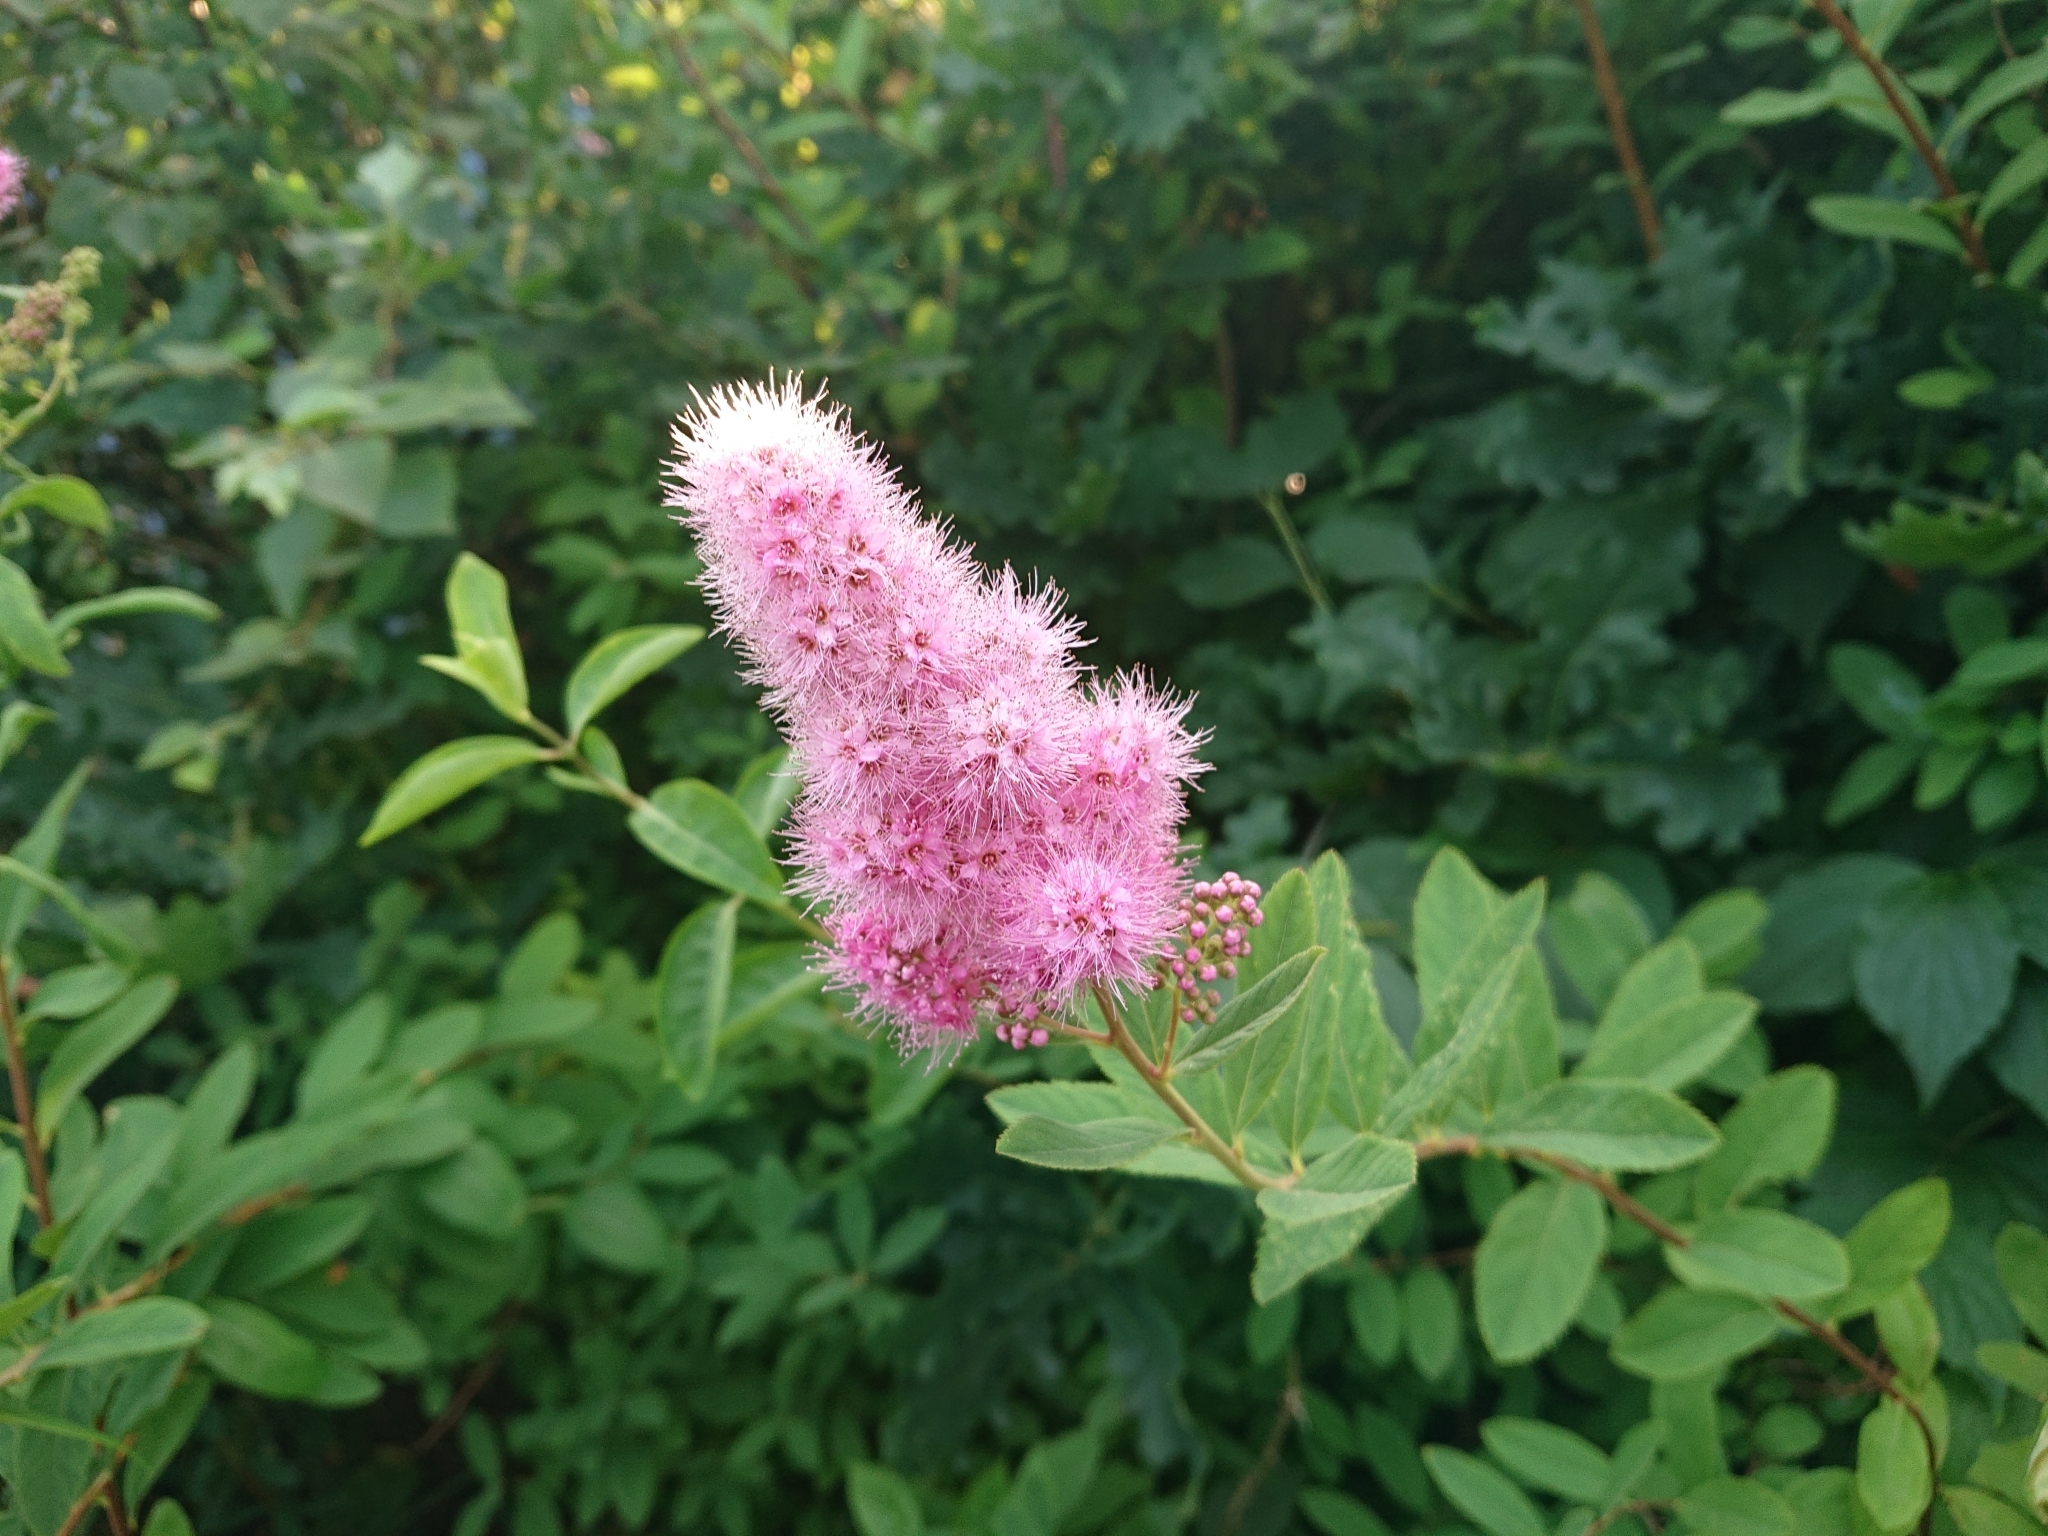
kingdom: Plantae
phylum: Tracheophyta
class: Magnoliopsida
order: Rosales
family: Rosaceae
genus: Spiraea
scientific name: Spiraea douglasii
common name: Steeplebush
